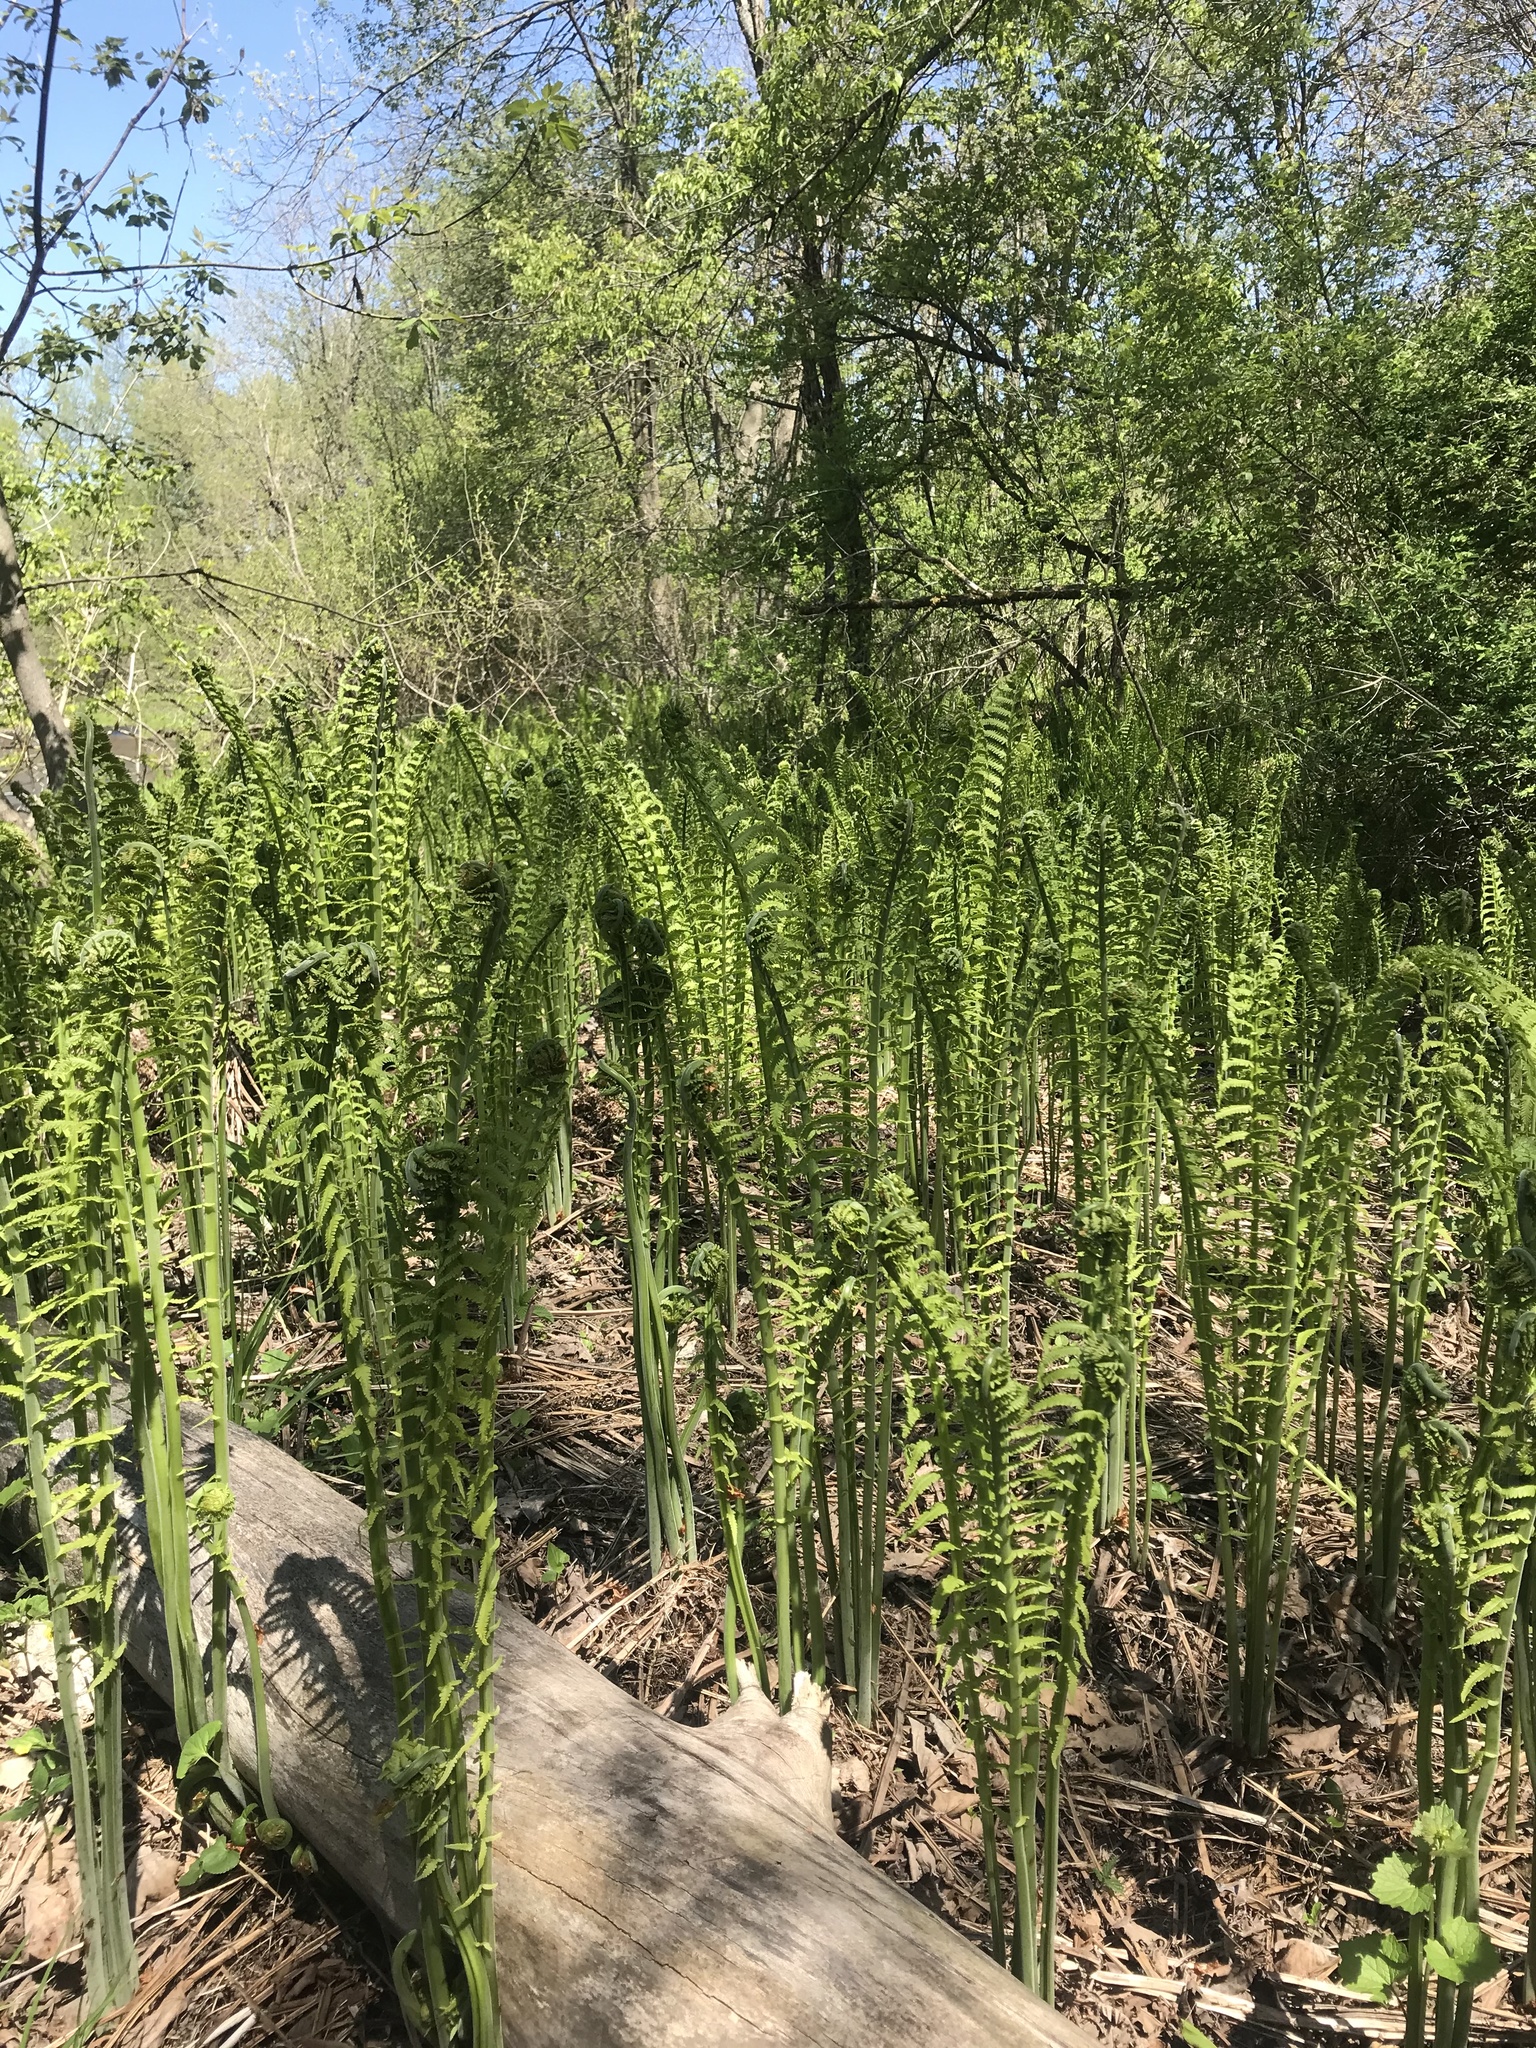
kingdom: Plantae
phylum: Tracheophyta
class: Polypodiopsida
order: Polypodiales
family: Onocleaceae
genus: Matteuccia
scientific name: Matteuccia struthiopteris
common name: Ostrich fern
